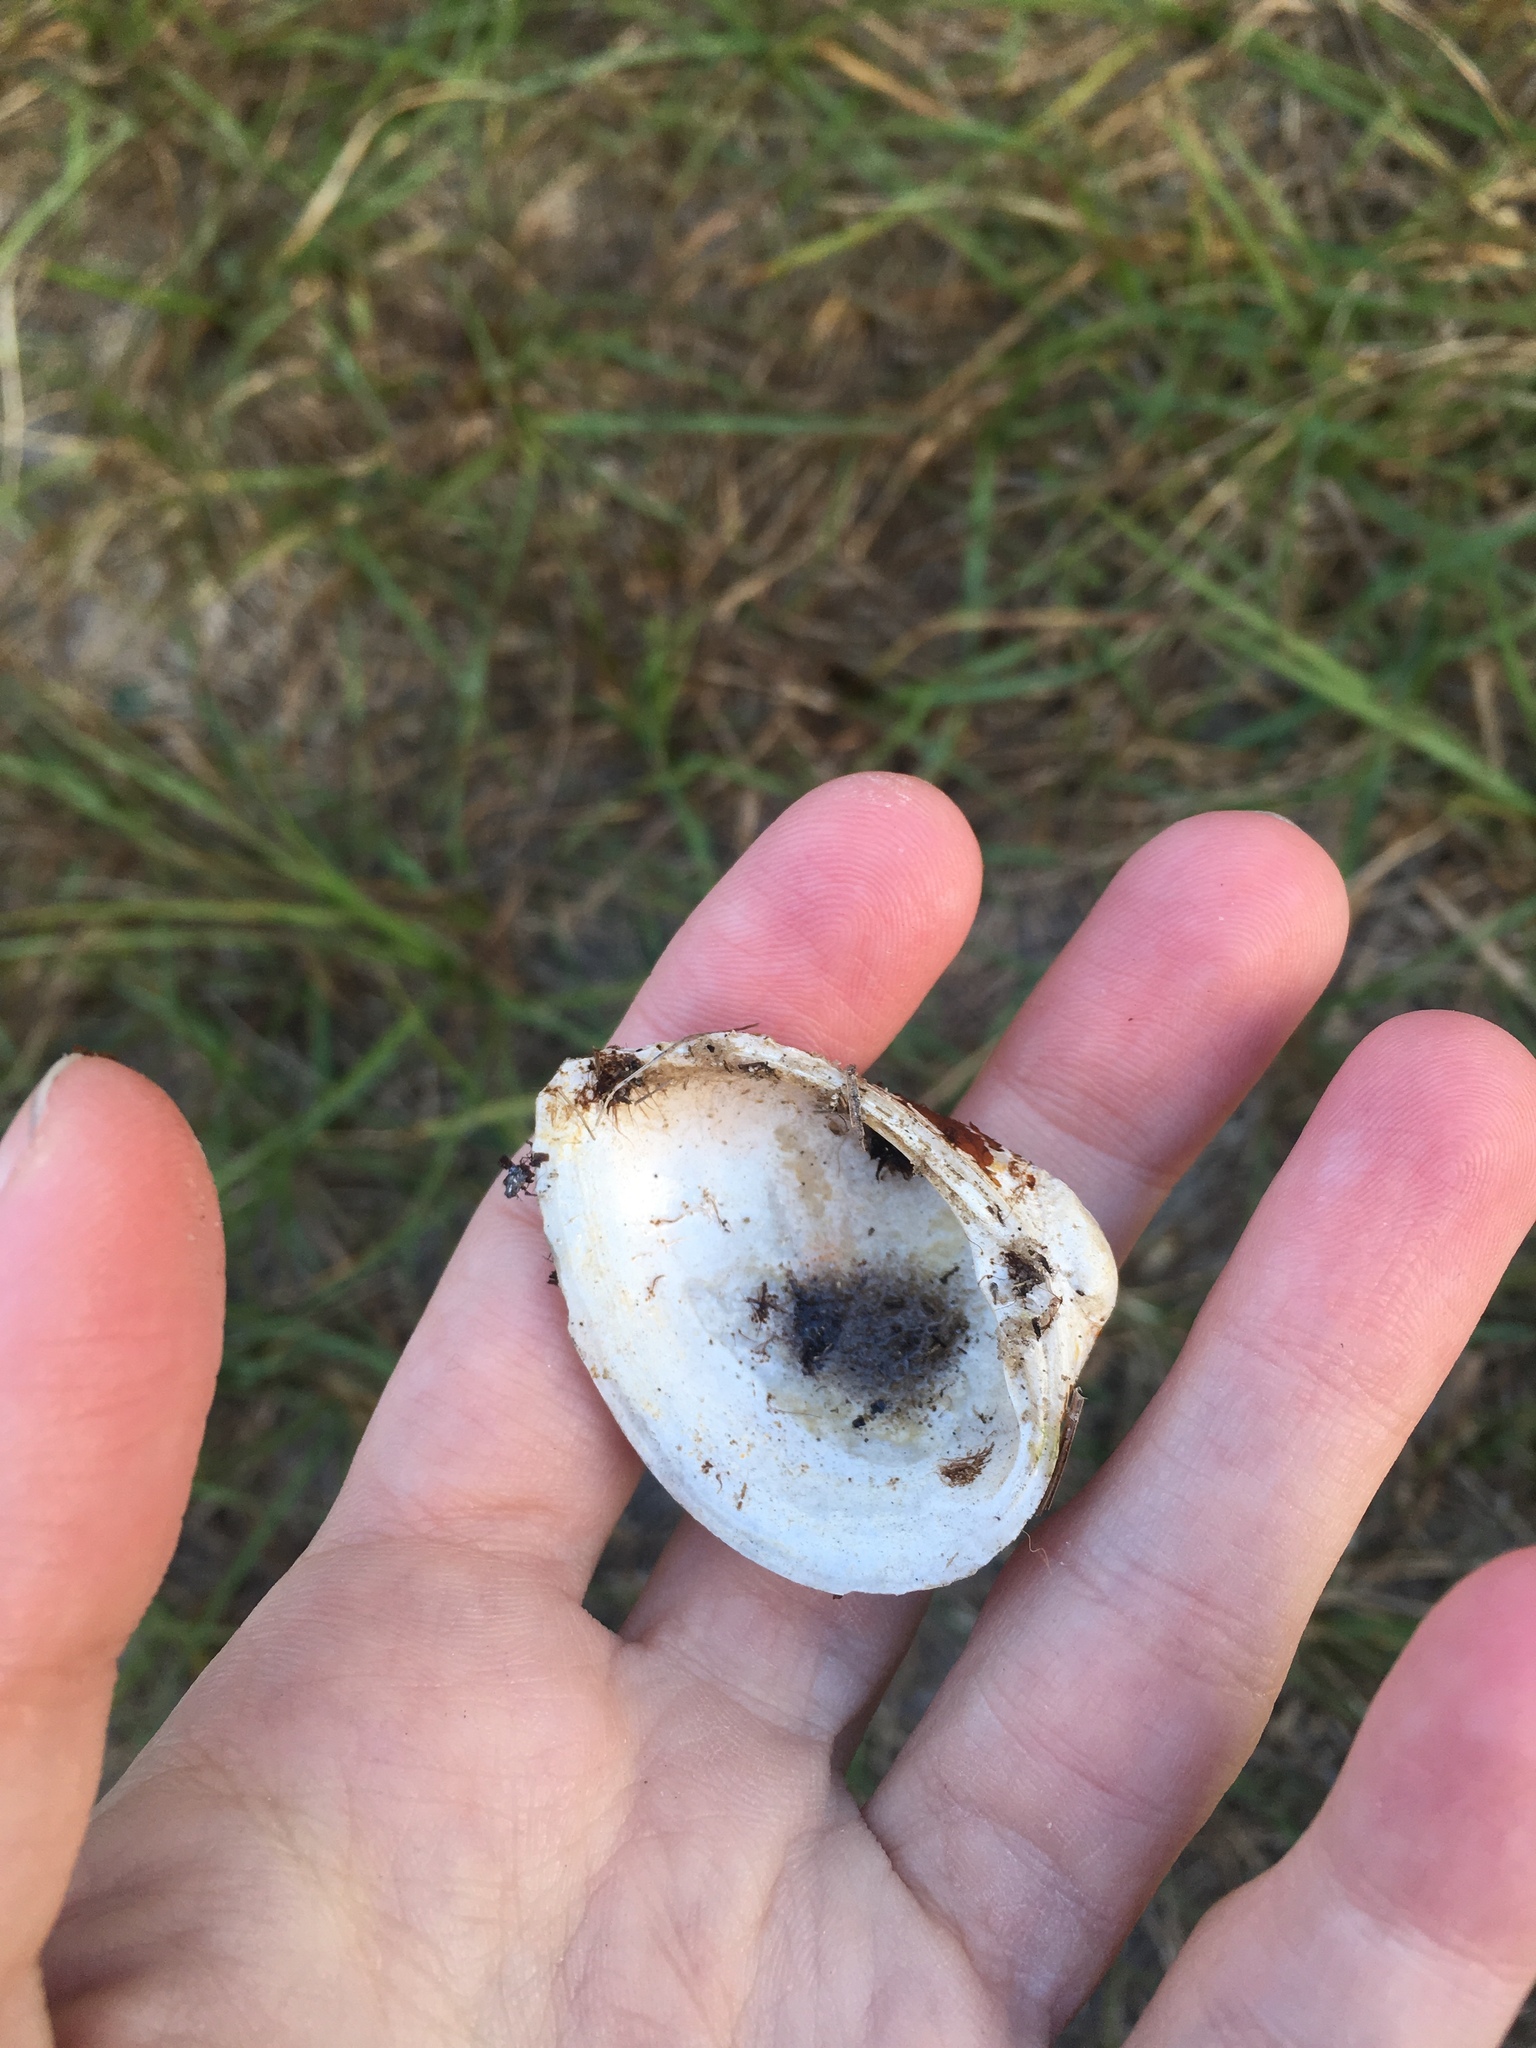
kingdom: Animalia
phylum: Mollusca
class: Bivalvia
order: Venerida
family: Mactridae
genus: Rangia
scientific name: Rangia cuneata
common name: Atlantic rangia
